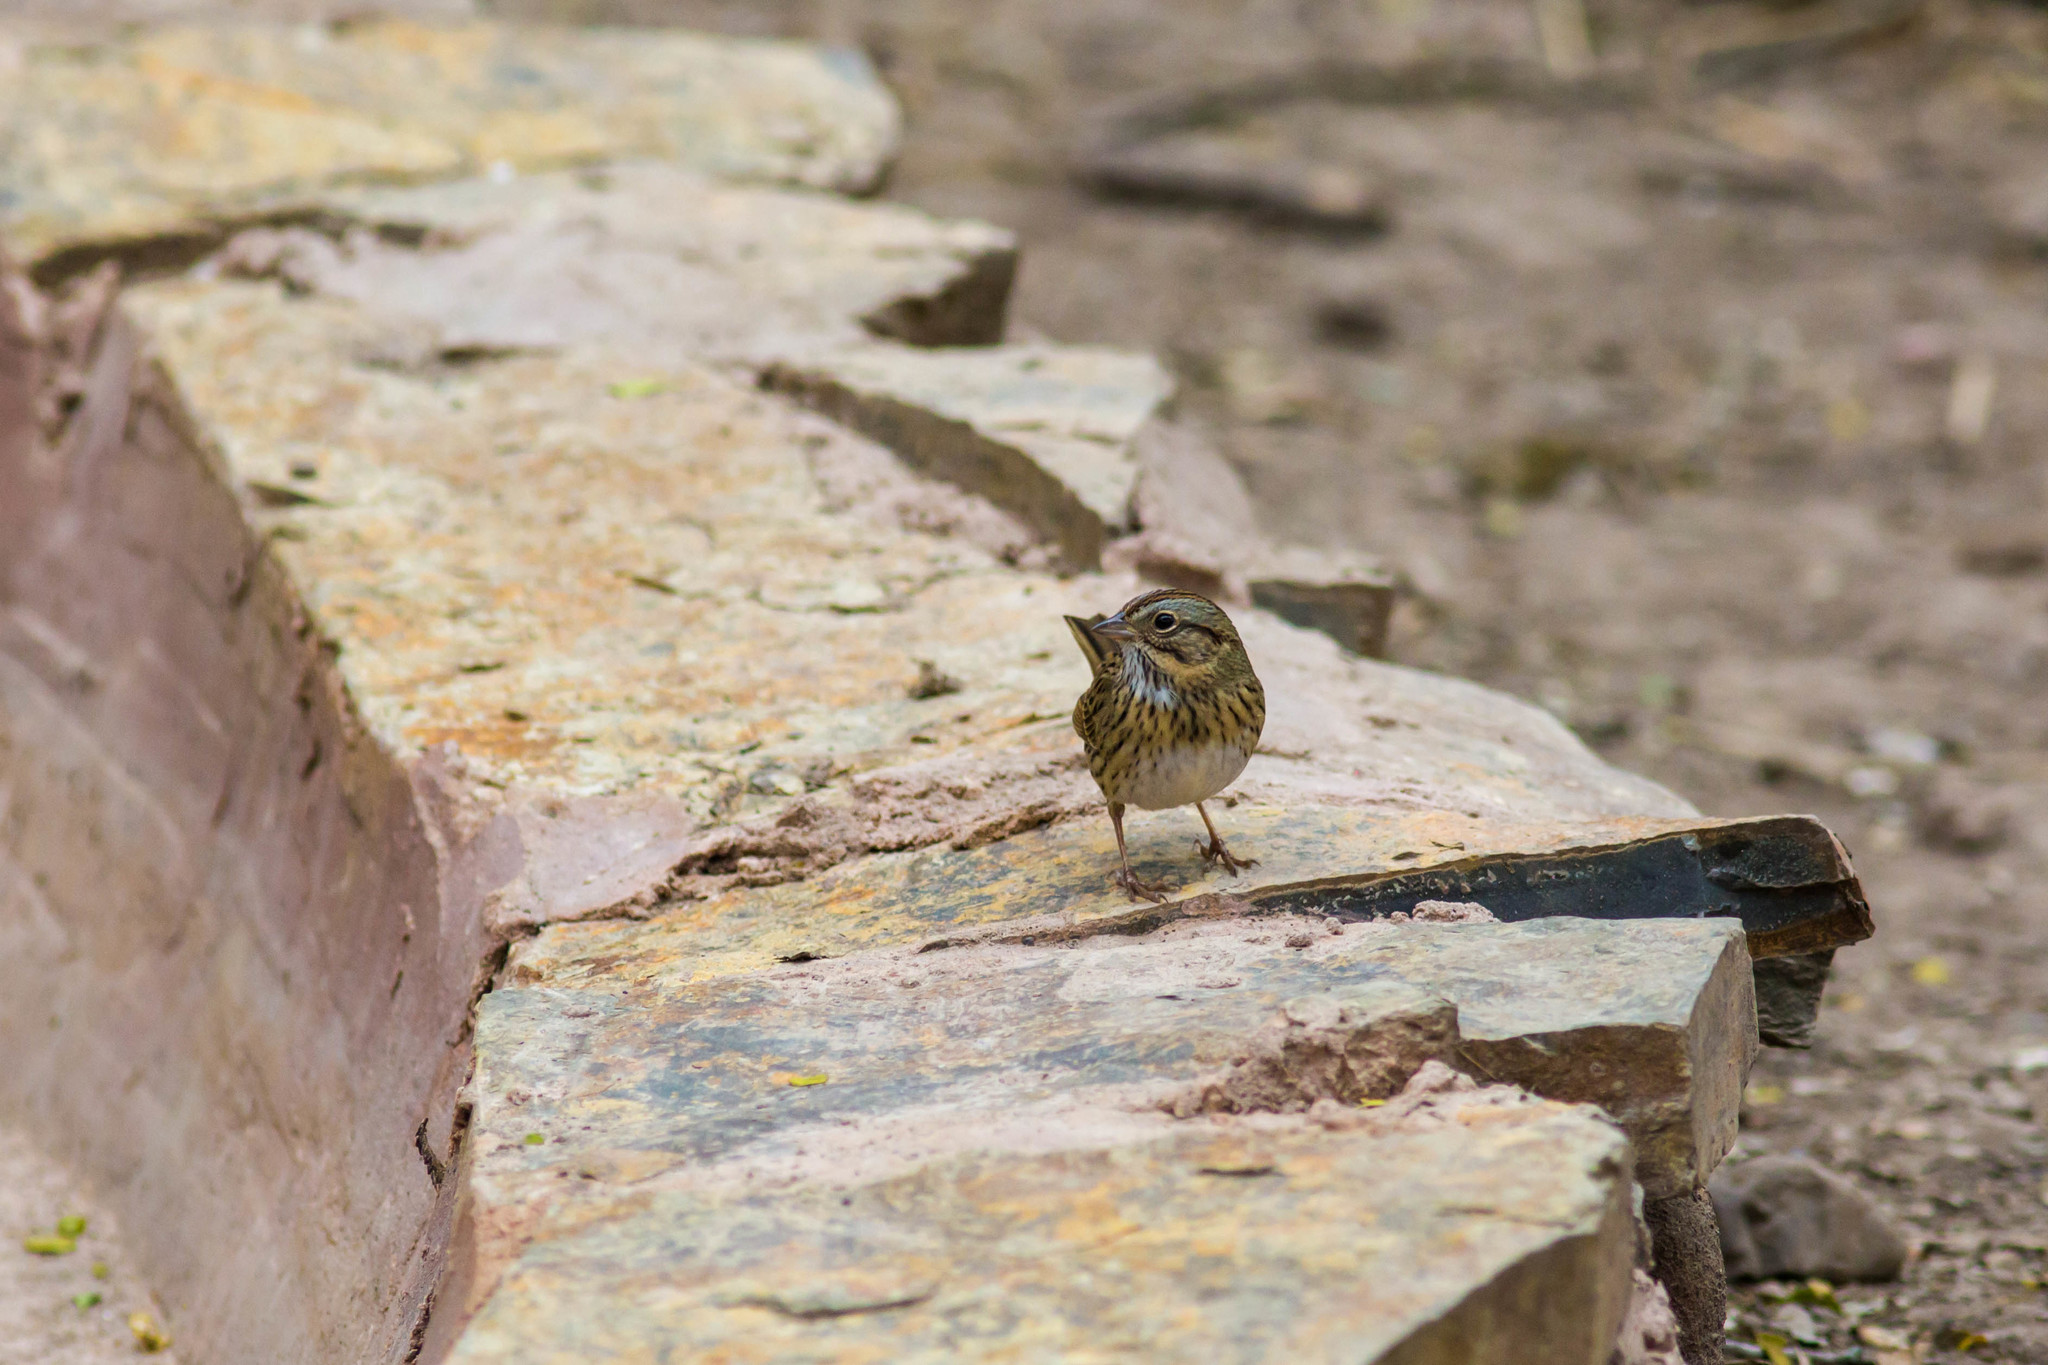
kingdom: Animalia
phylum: Chordata
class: Aves
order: Passeriformes
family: Passerellidae
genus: Melospiza
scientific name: Melospiza lincolnii
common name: Lincoln's sparrow
